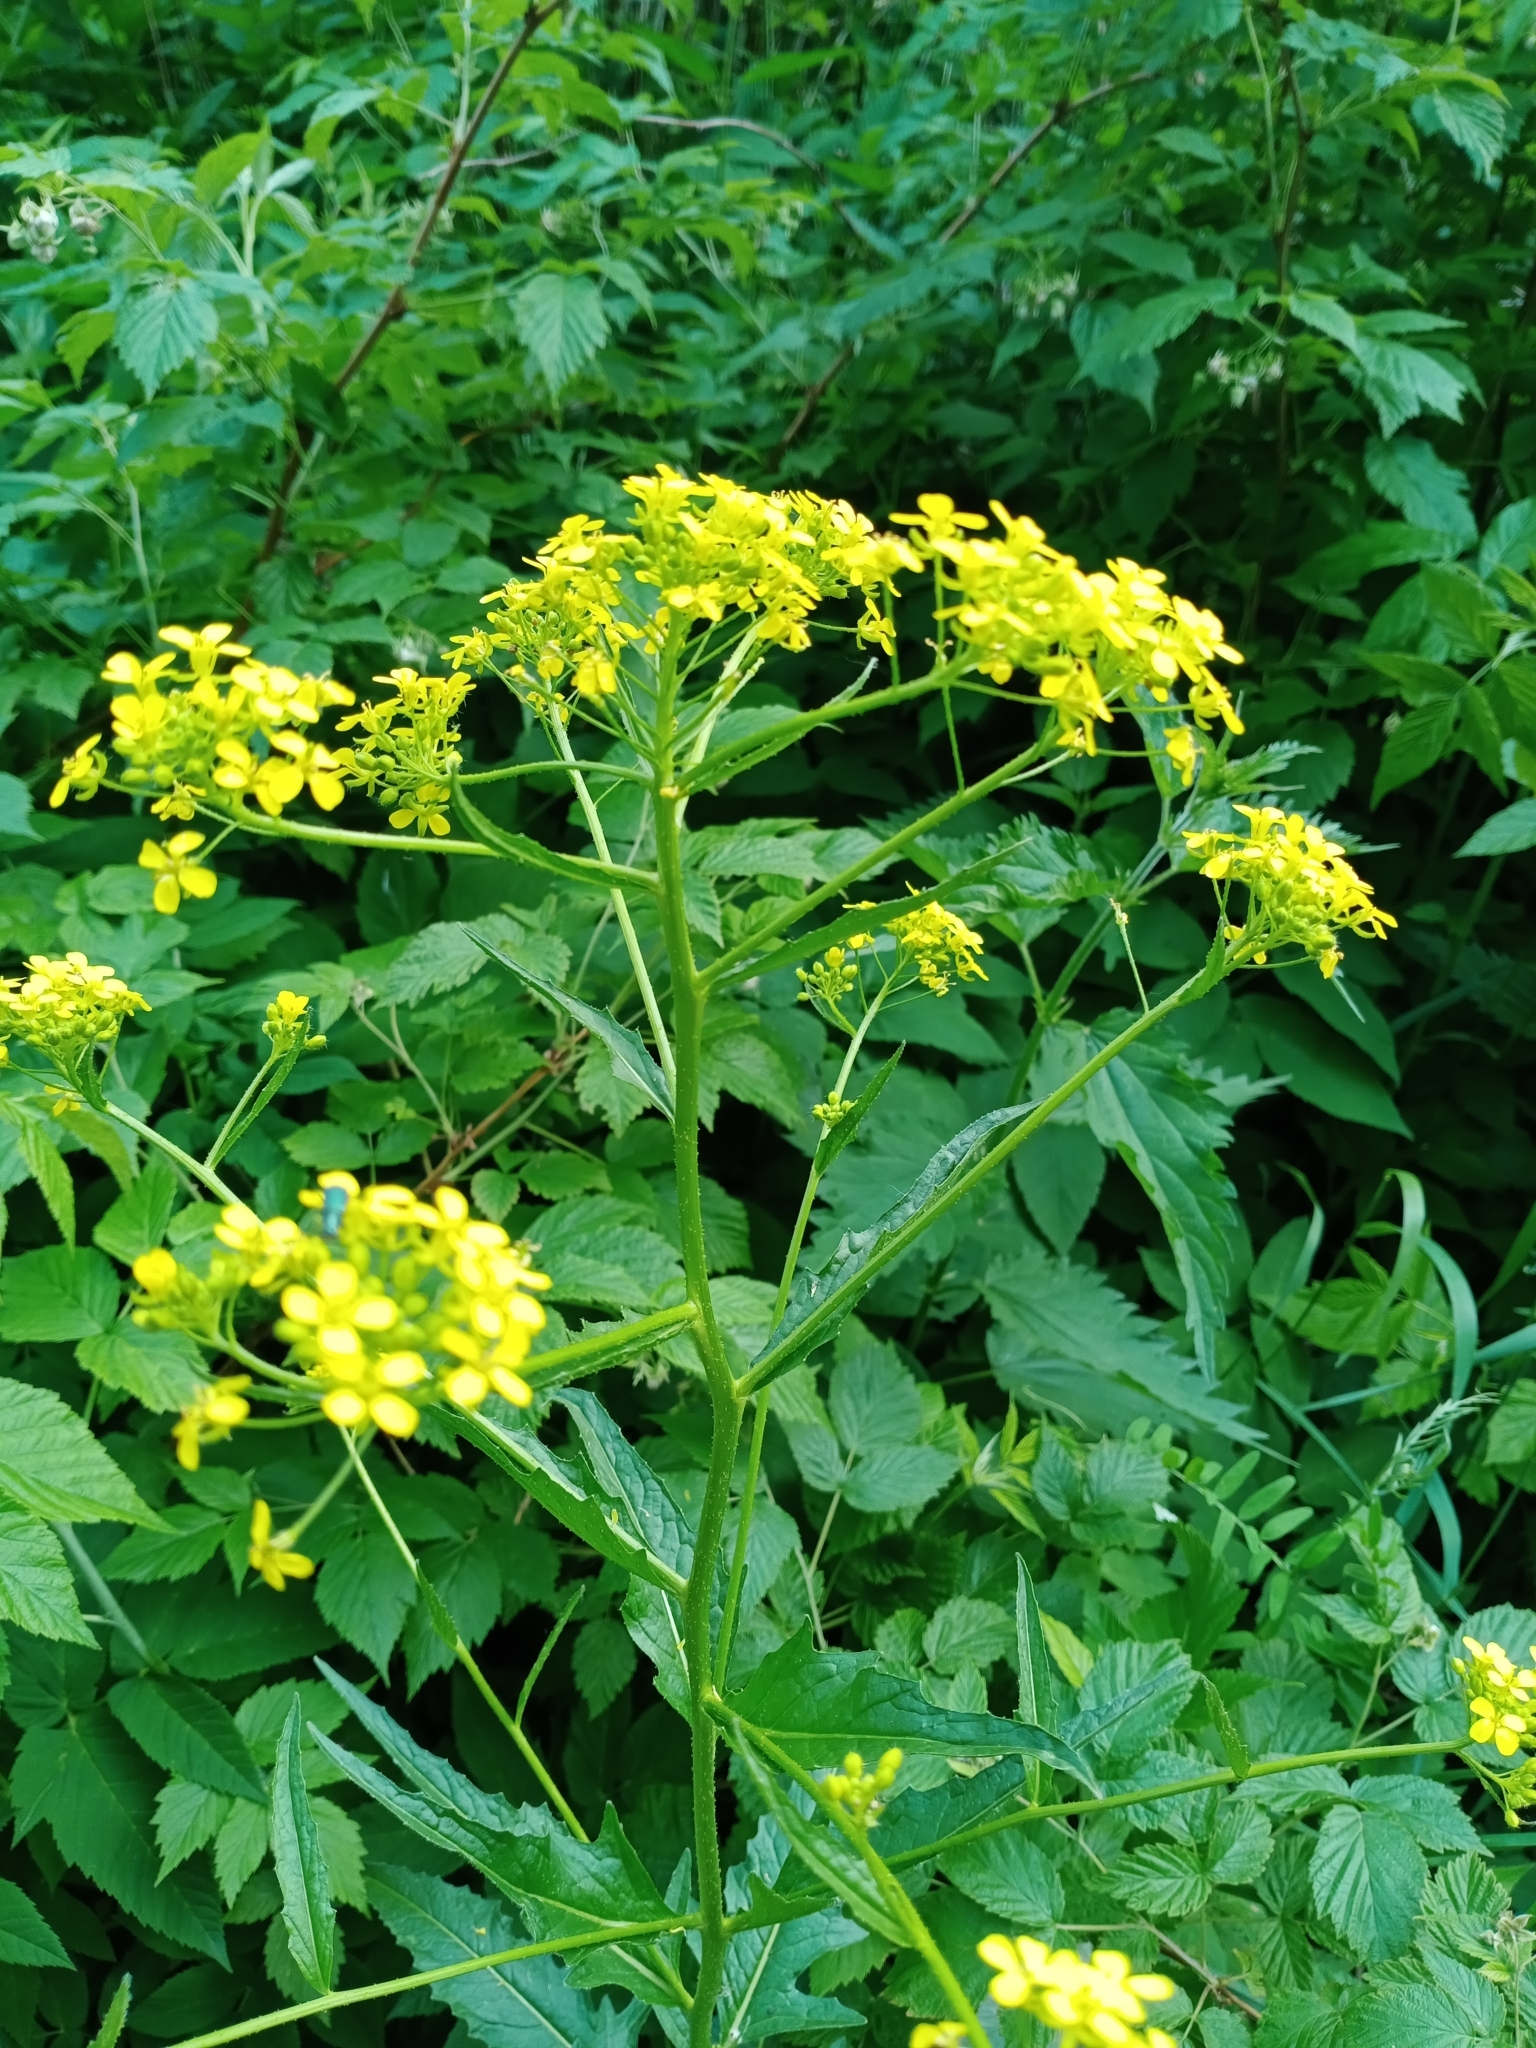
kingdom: Plantae
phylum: Tracheophyta
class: Magnoliopsida
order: Brassicales
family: Brassicaceae
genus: Bunias
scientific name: Bunias orientalis
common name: Warty-cabbage
